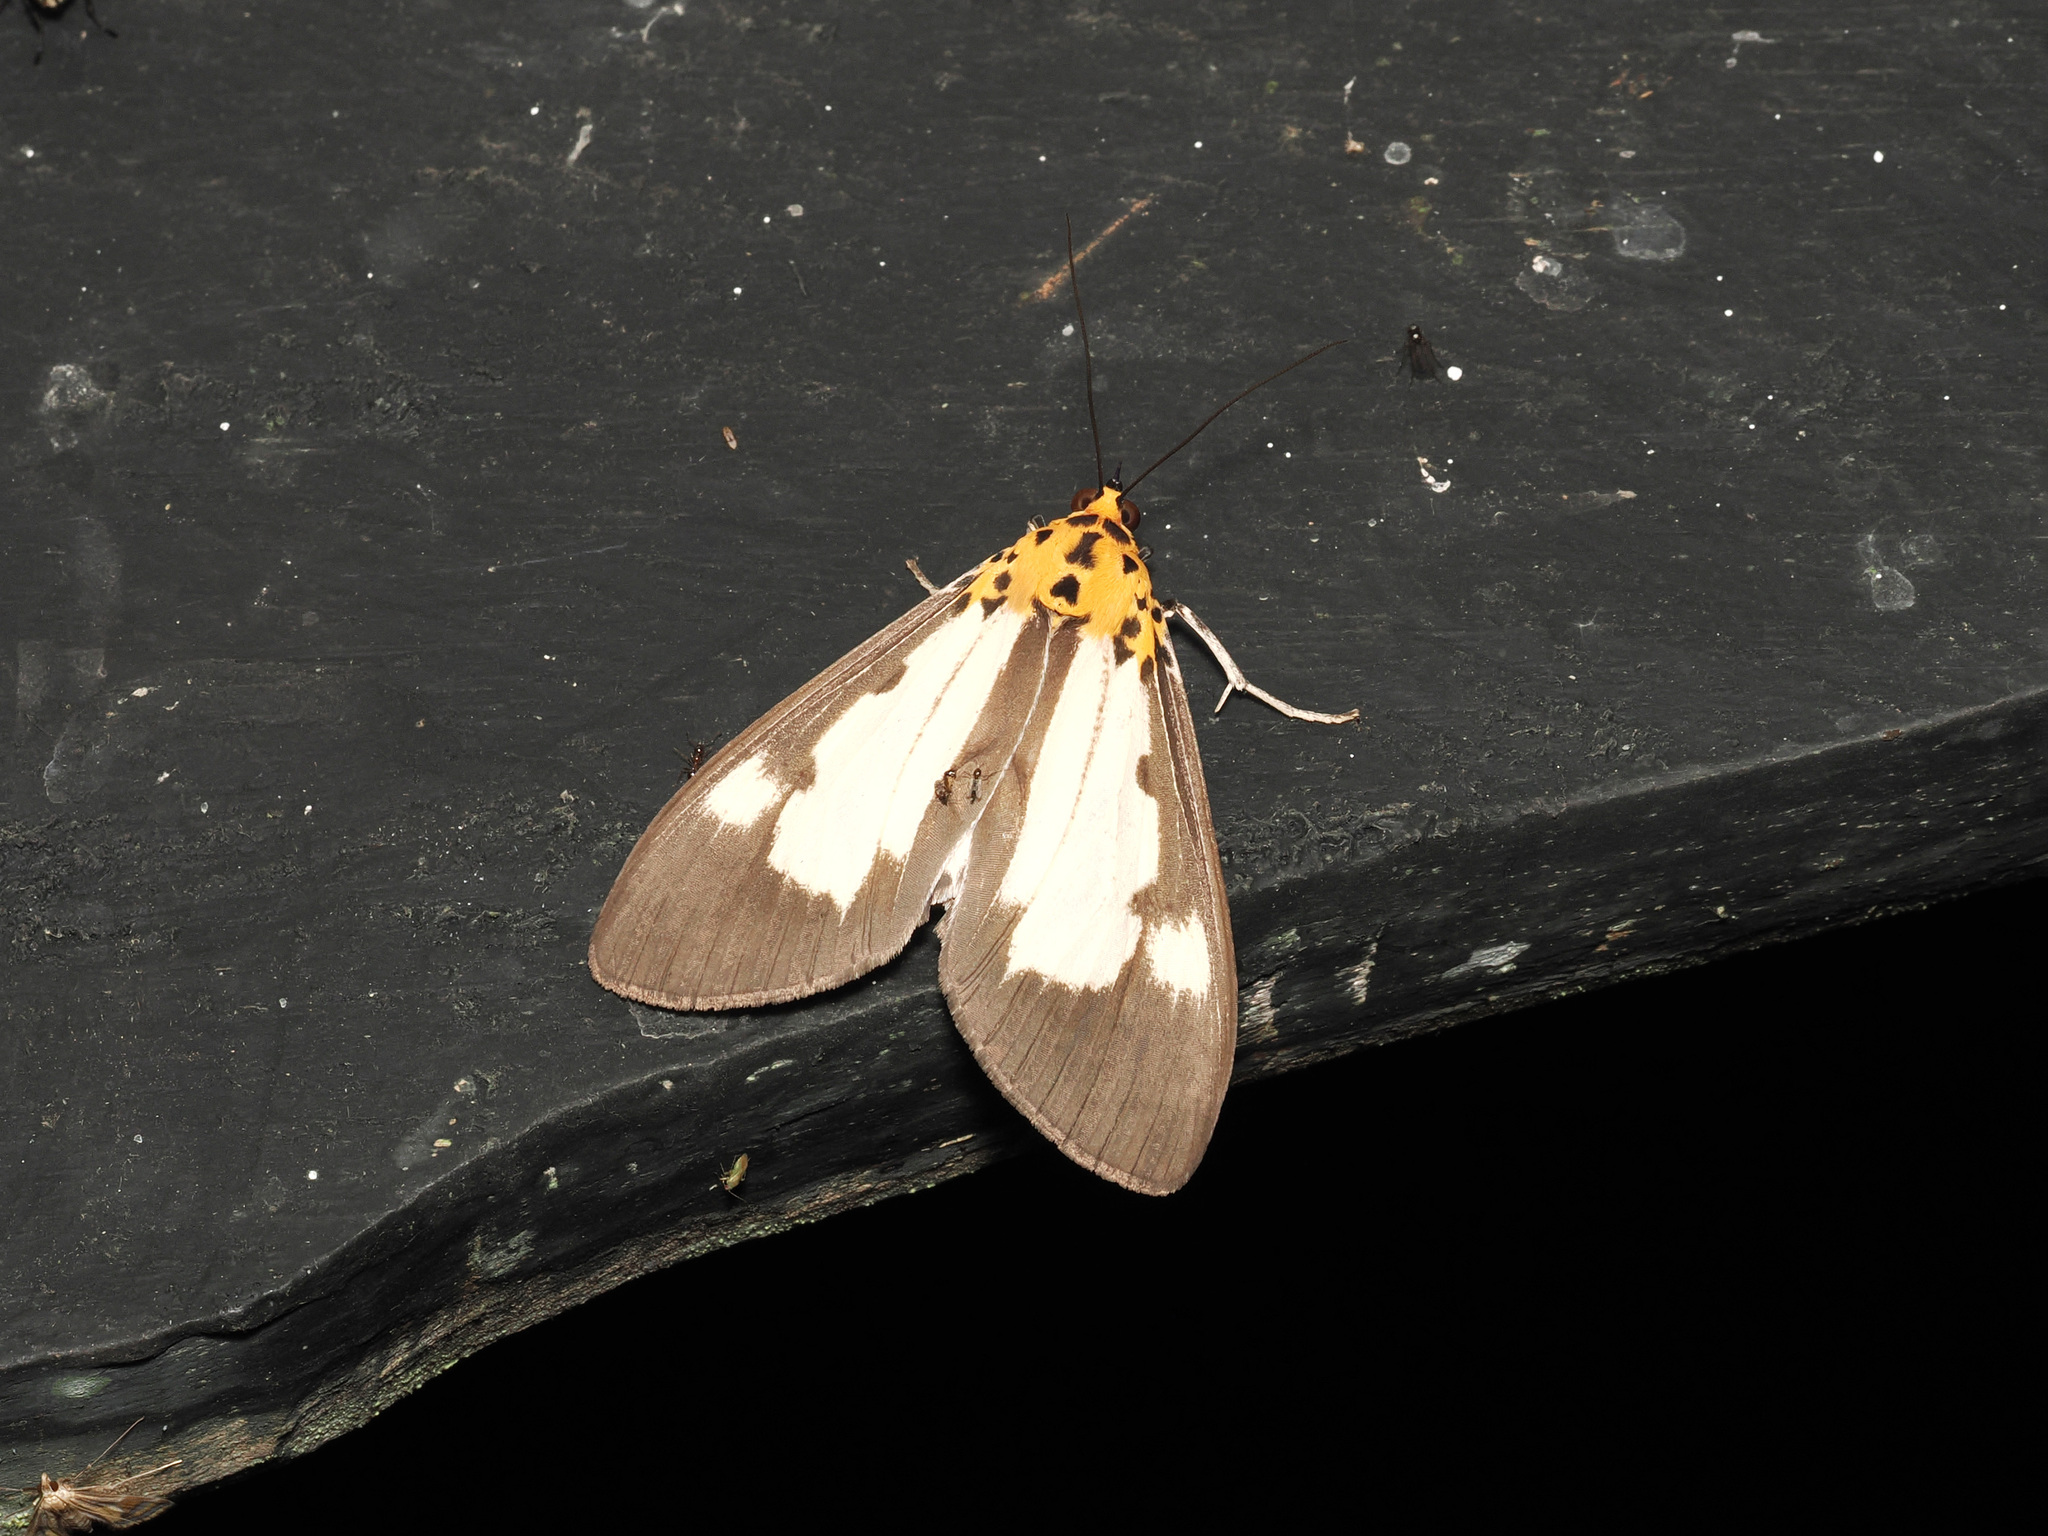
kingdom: Animalia
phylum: Arthropoda
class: Insecta
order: Lepidoptera
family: Erebidae
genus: Asota
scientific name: Asota plana
